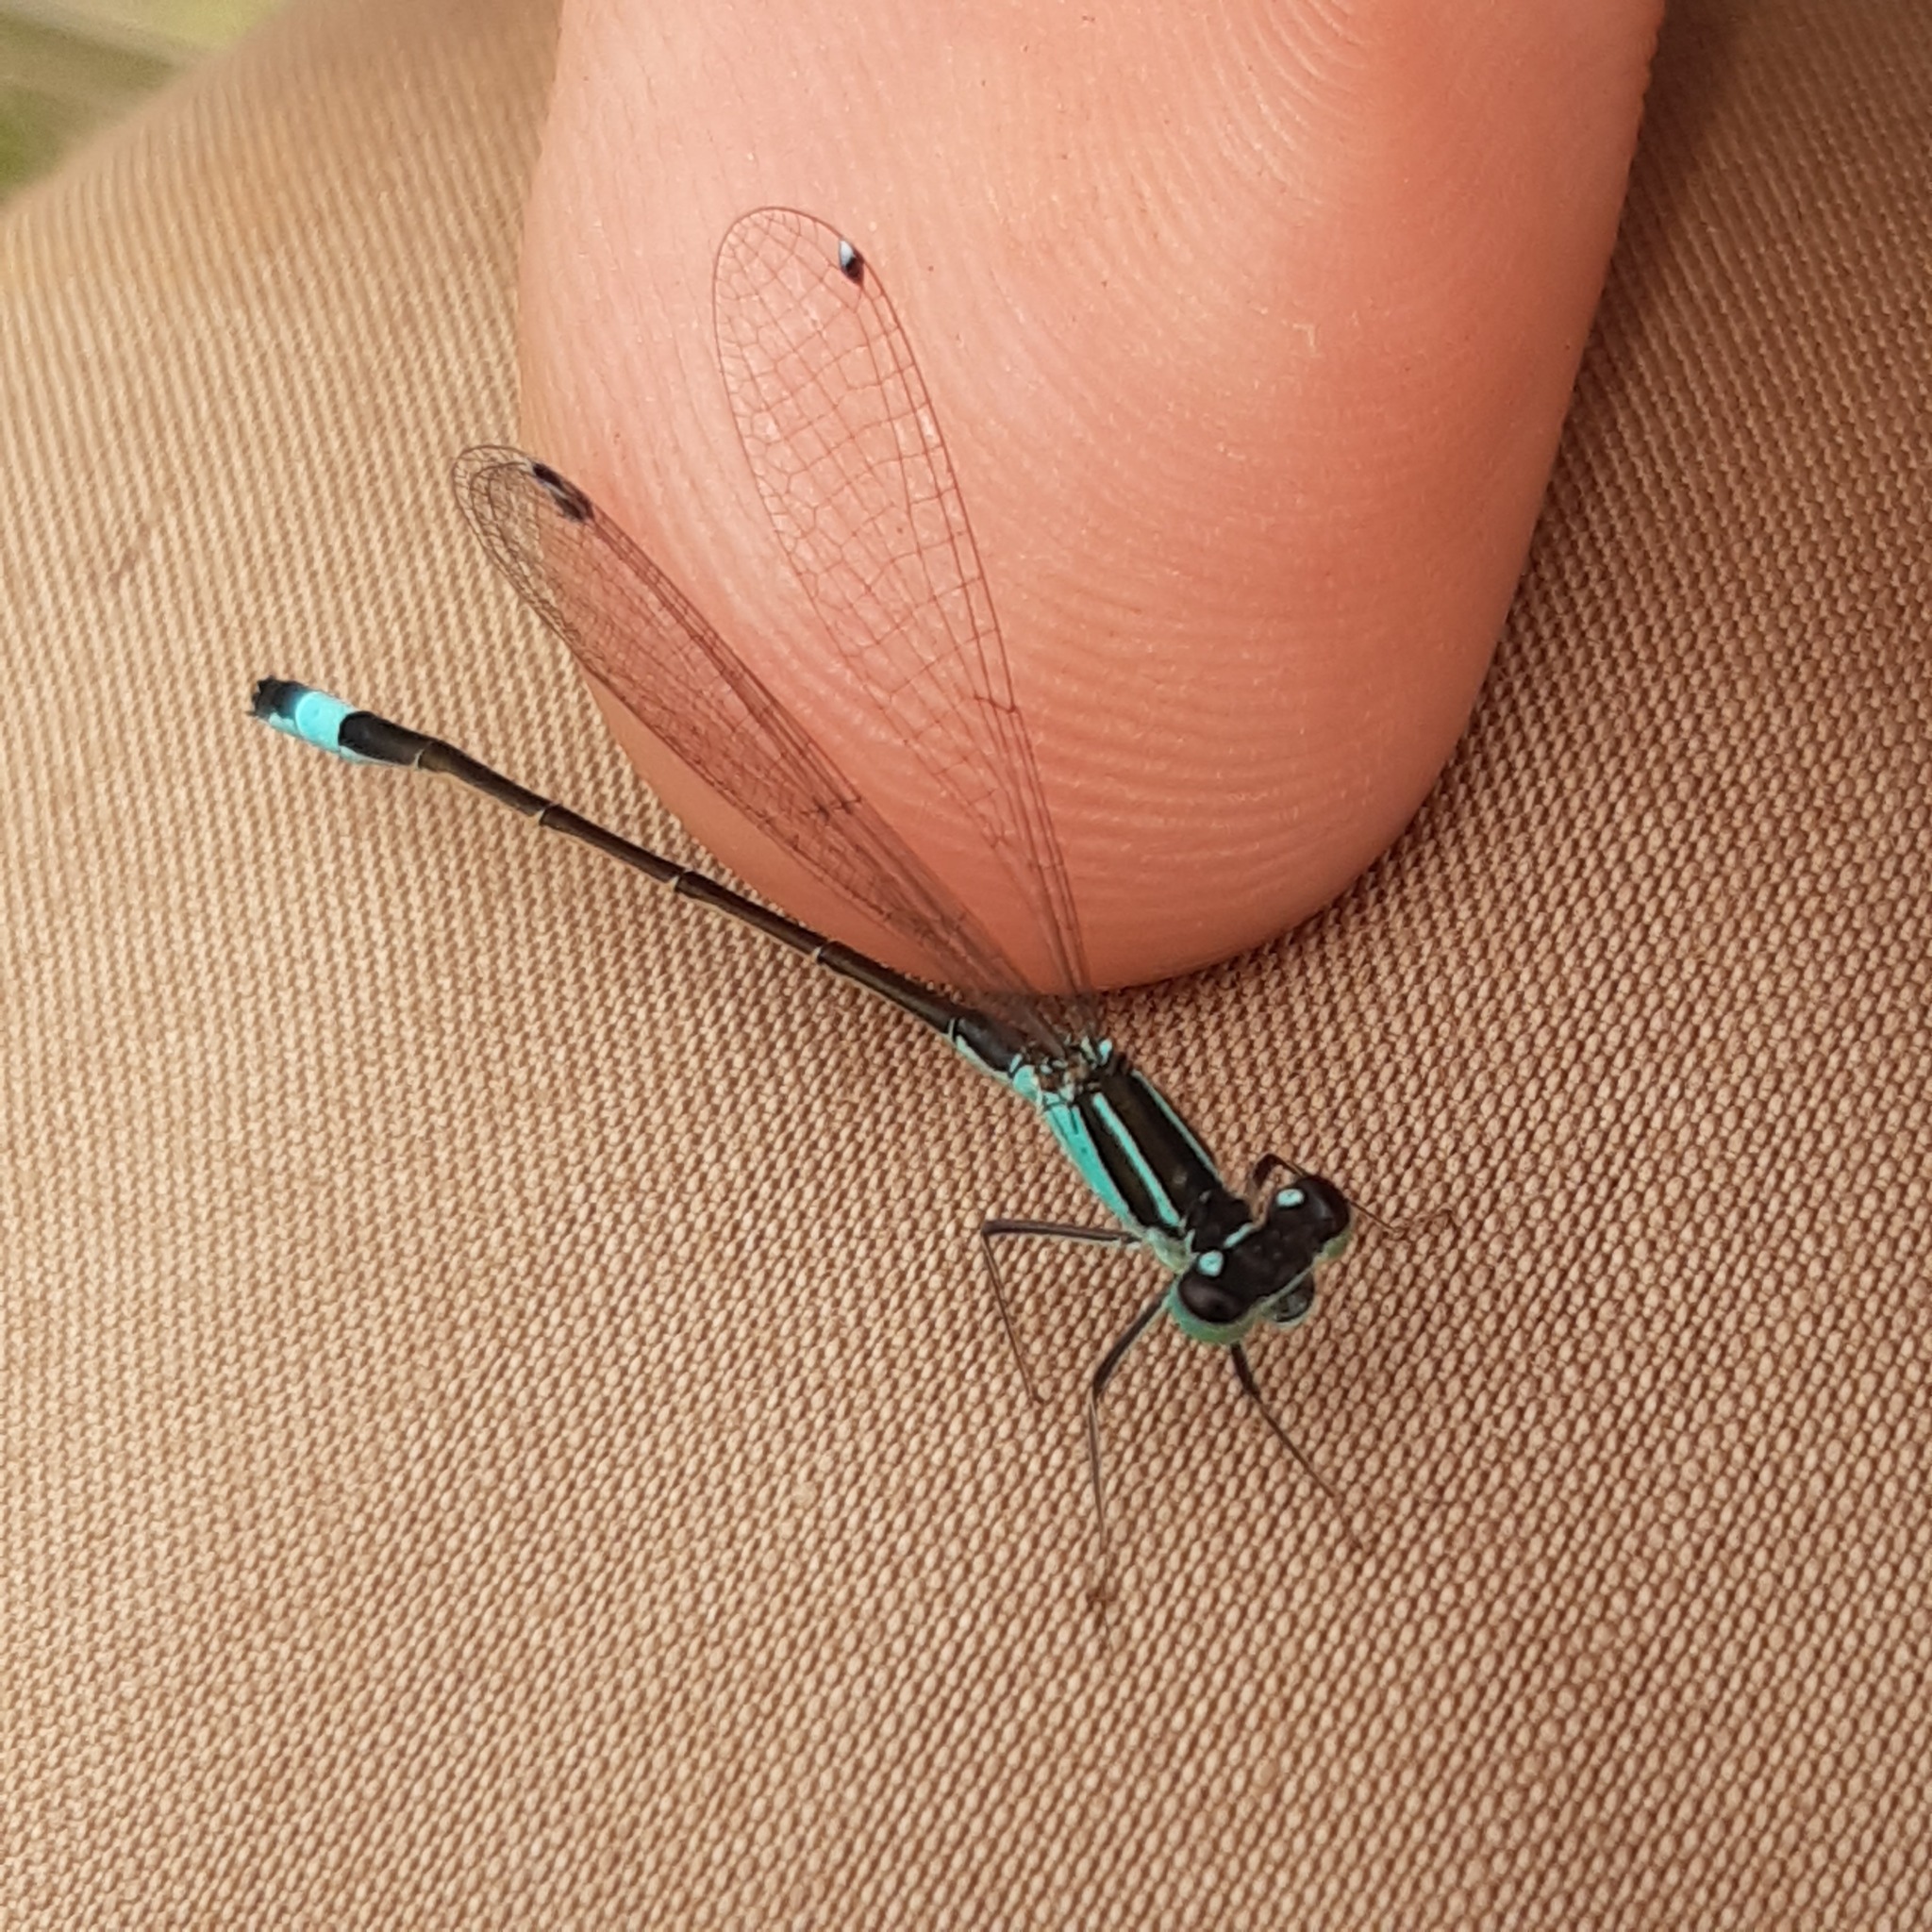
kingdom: Animalia
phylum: Arthropoda
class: Insecta
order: Odonata
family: Coenagrionidae
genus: Ischnura
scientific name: Ischnura elegans
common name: Blue-tailed damselfly
